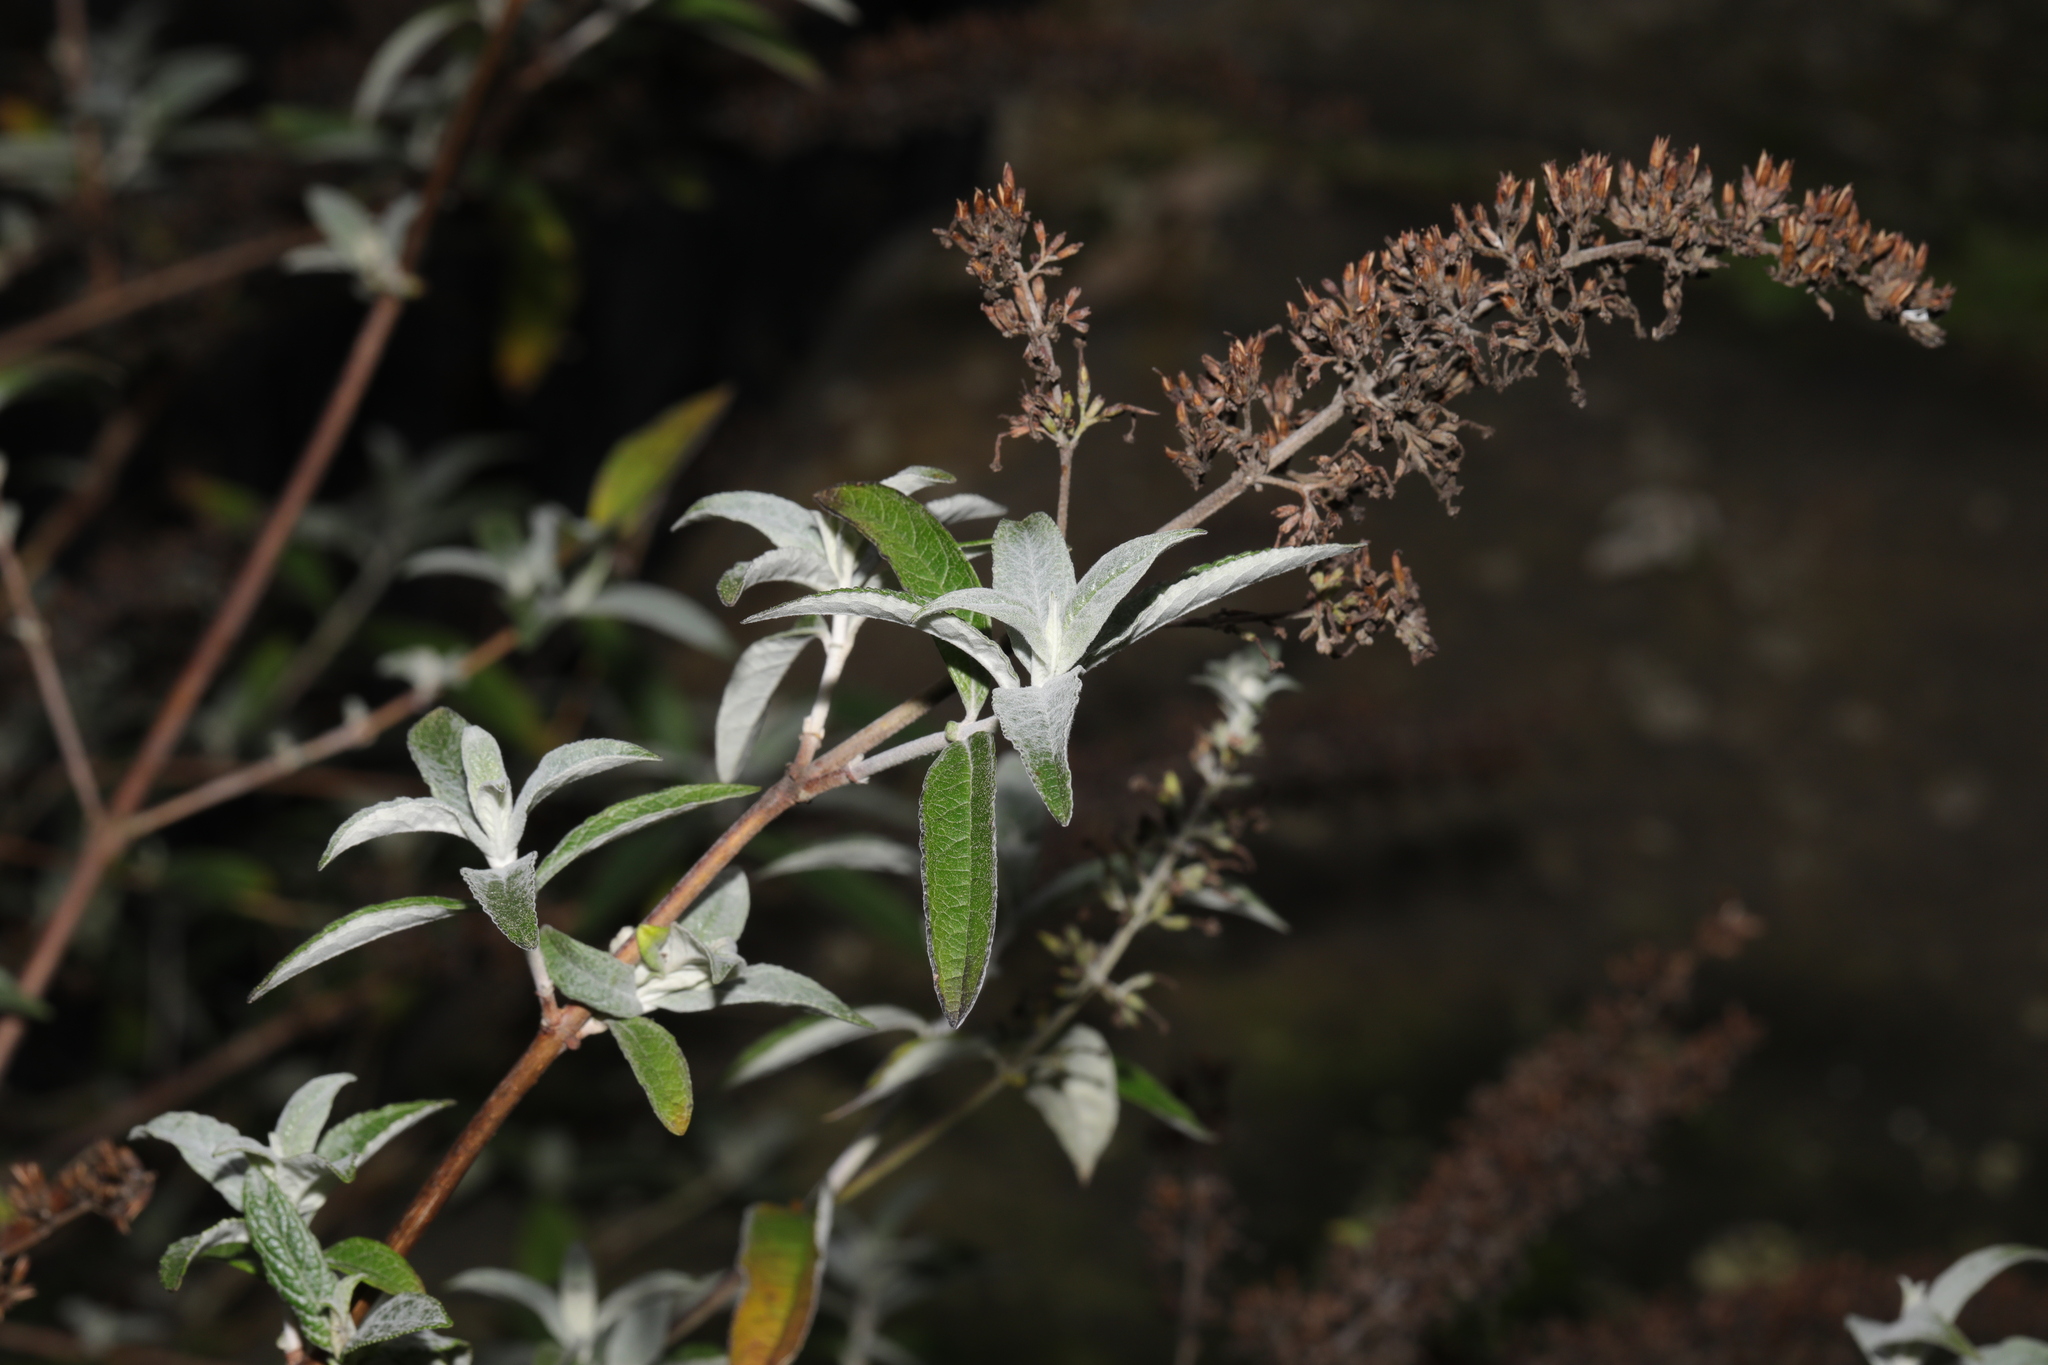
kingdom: Plantae
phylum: Tracheophyta
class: Magnoliopsida
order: Lamiales
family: Scrophulariaceae
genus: Buddleja
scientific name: Buddleja davidii
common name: Butterfly-bush
